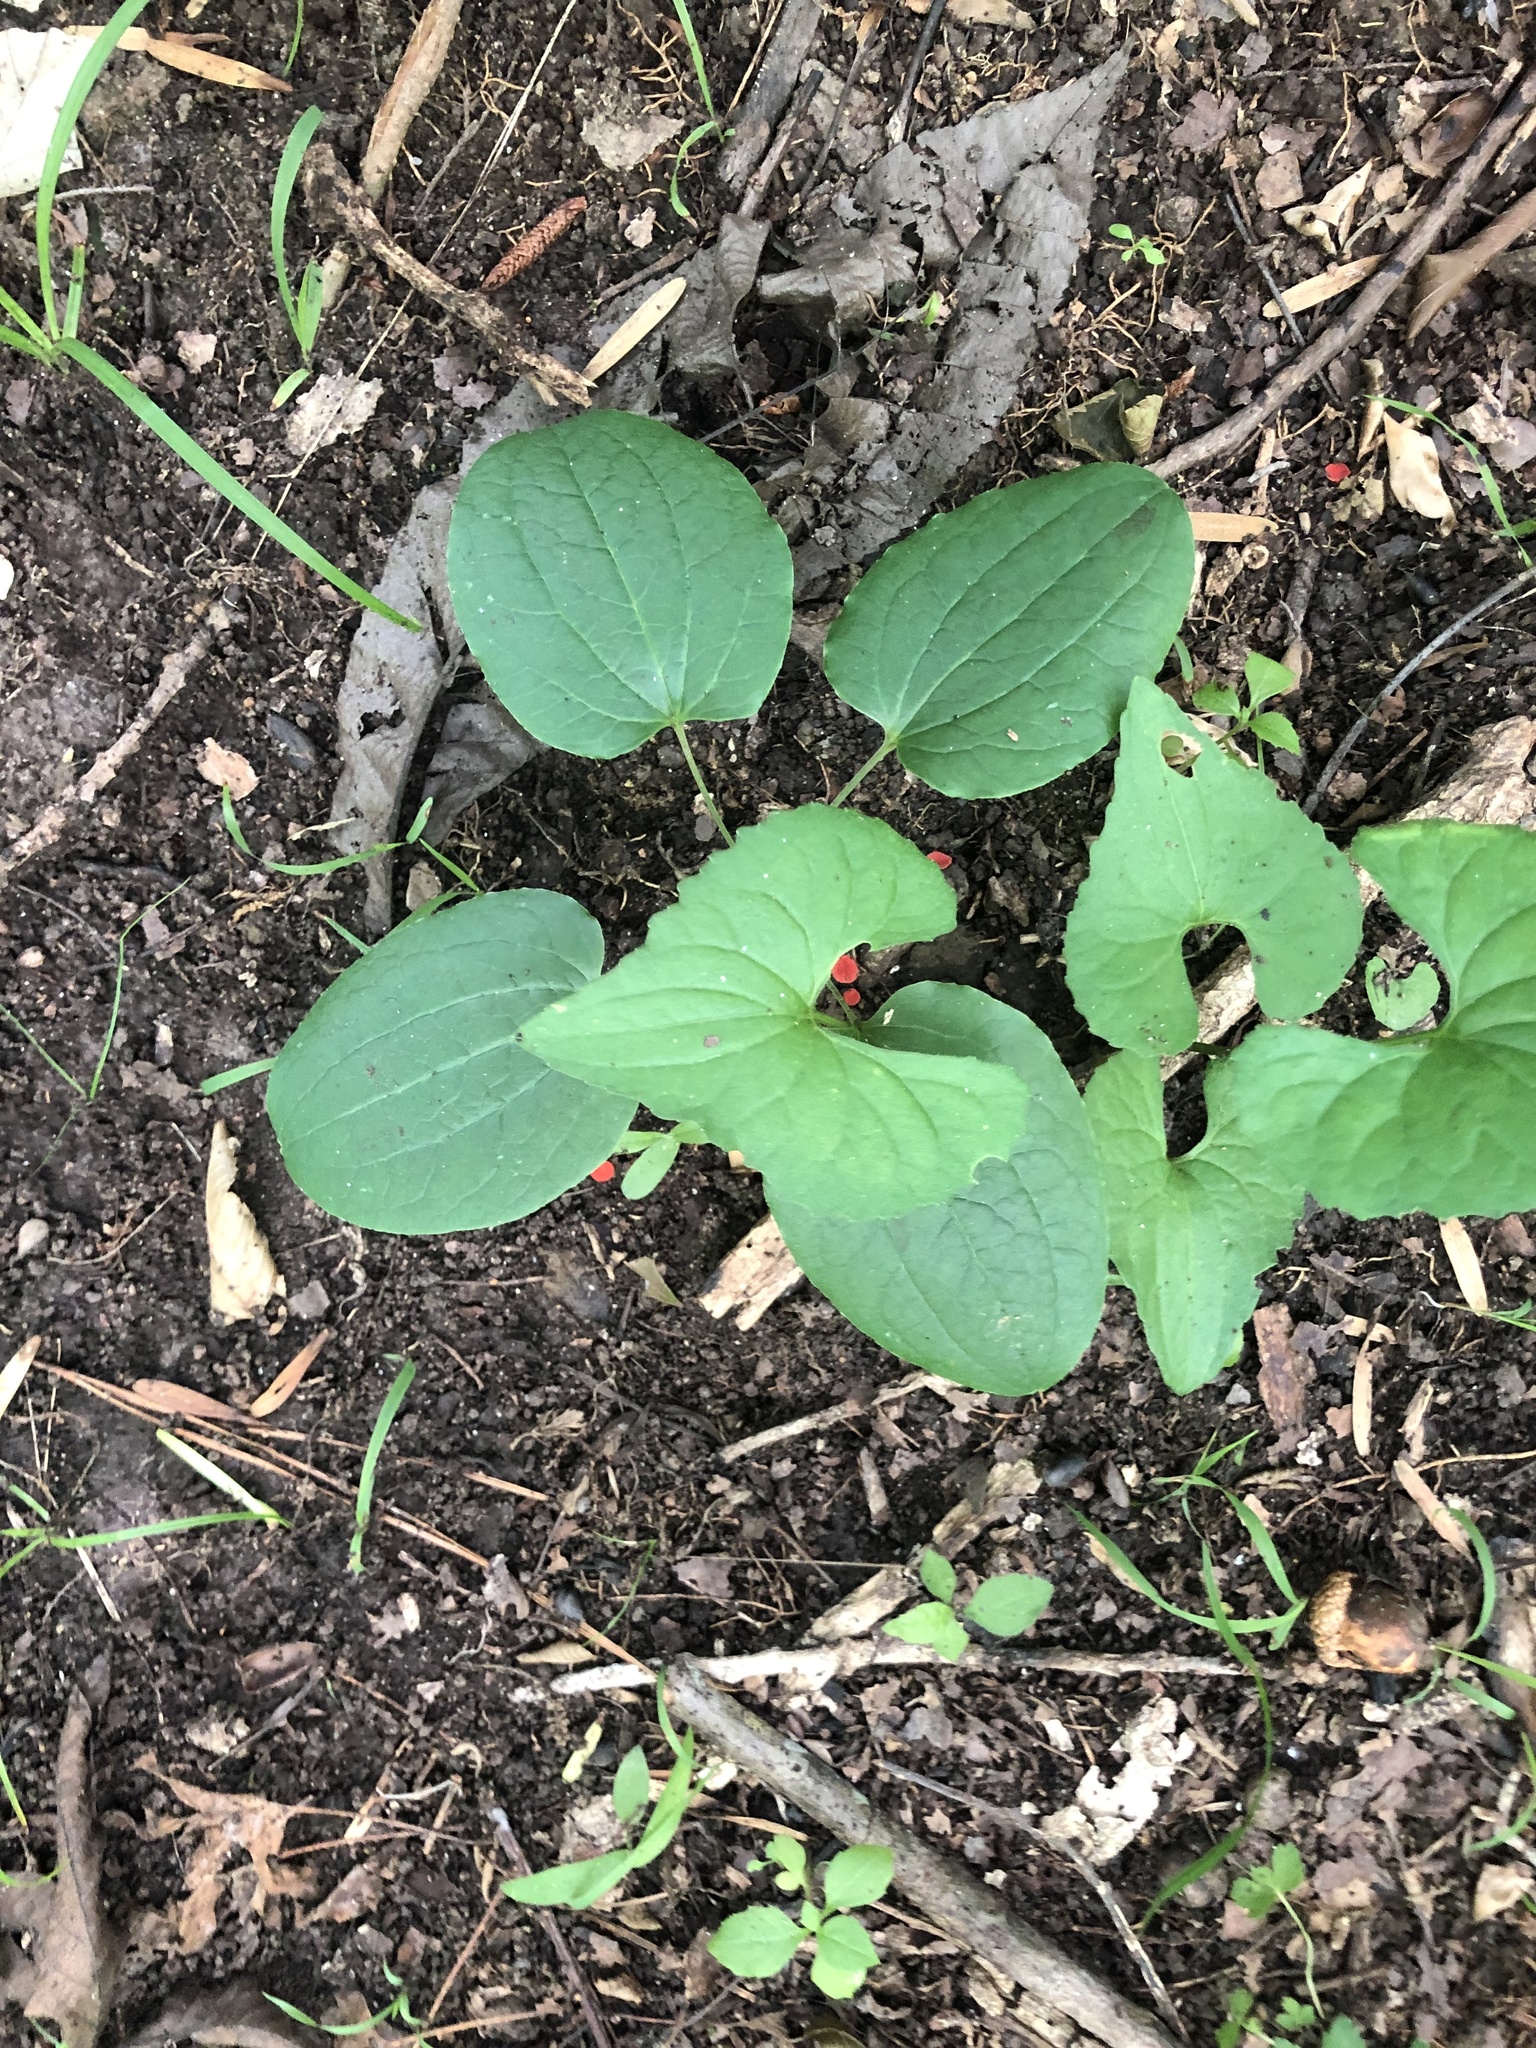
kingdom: Plantae
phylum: Tracheophyta
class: Liliopsida
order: Liliales
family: Smilacaceae
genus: Smilax
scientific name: Smilax lasioneura
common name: Blue ridge carrionflower
